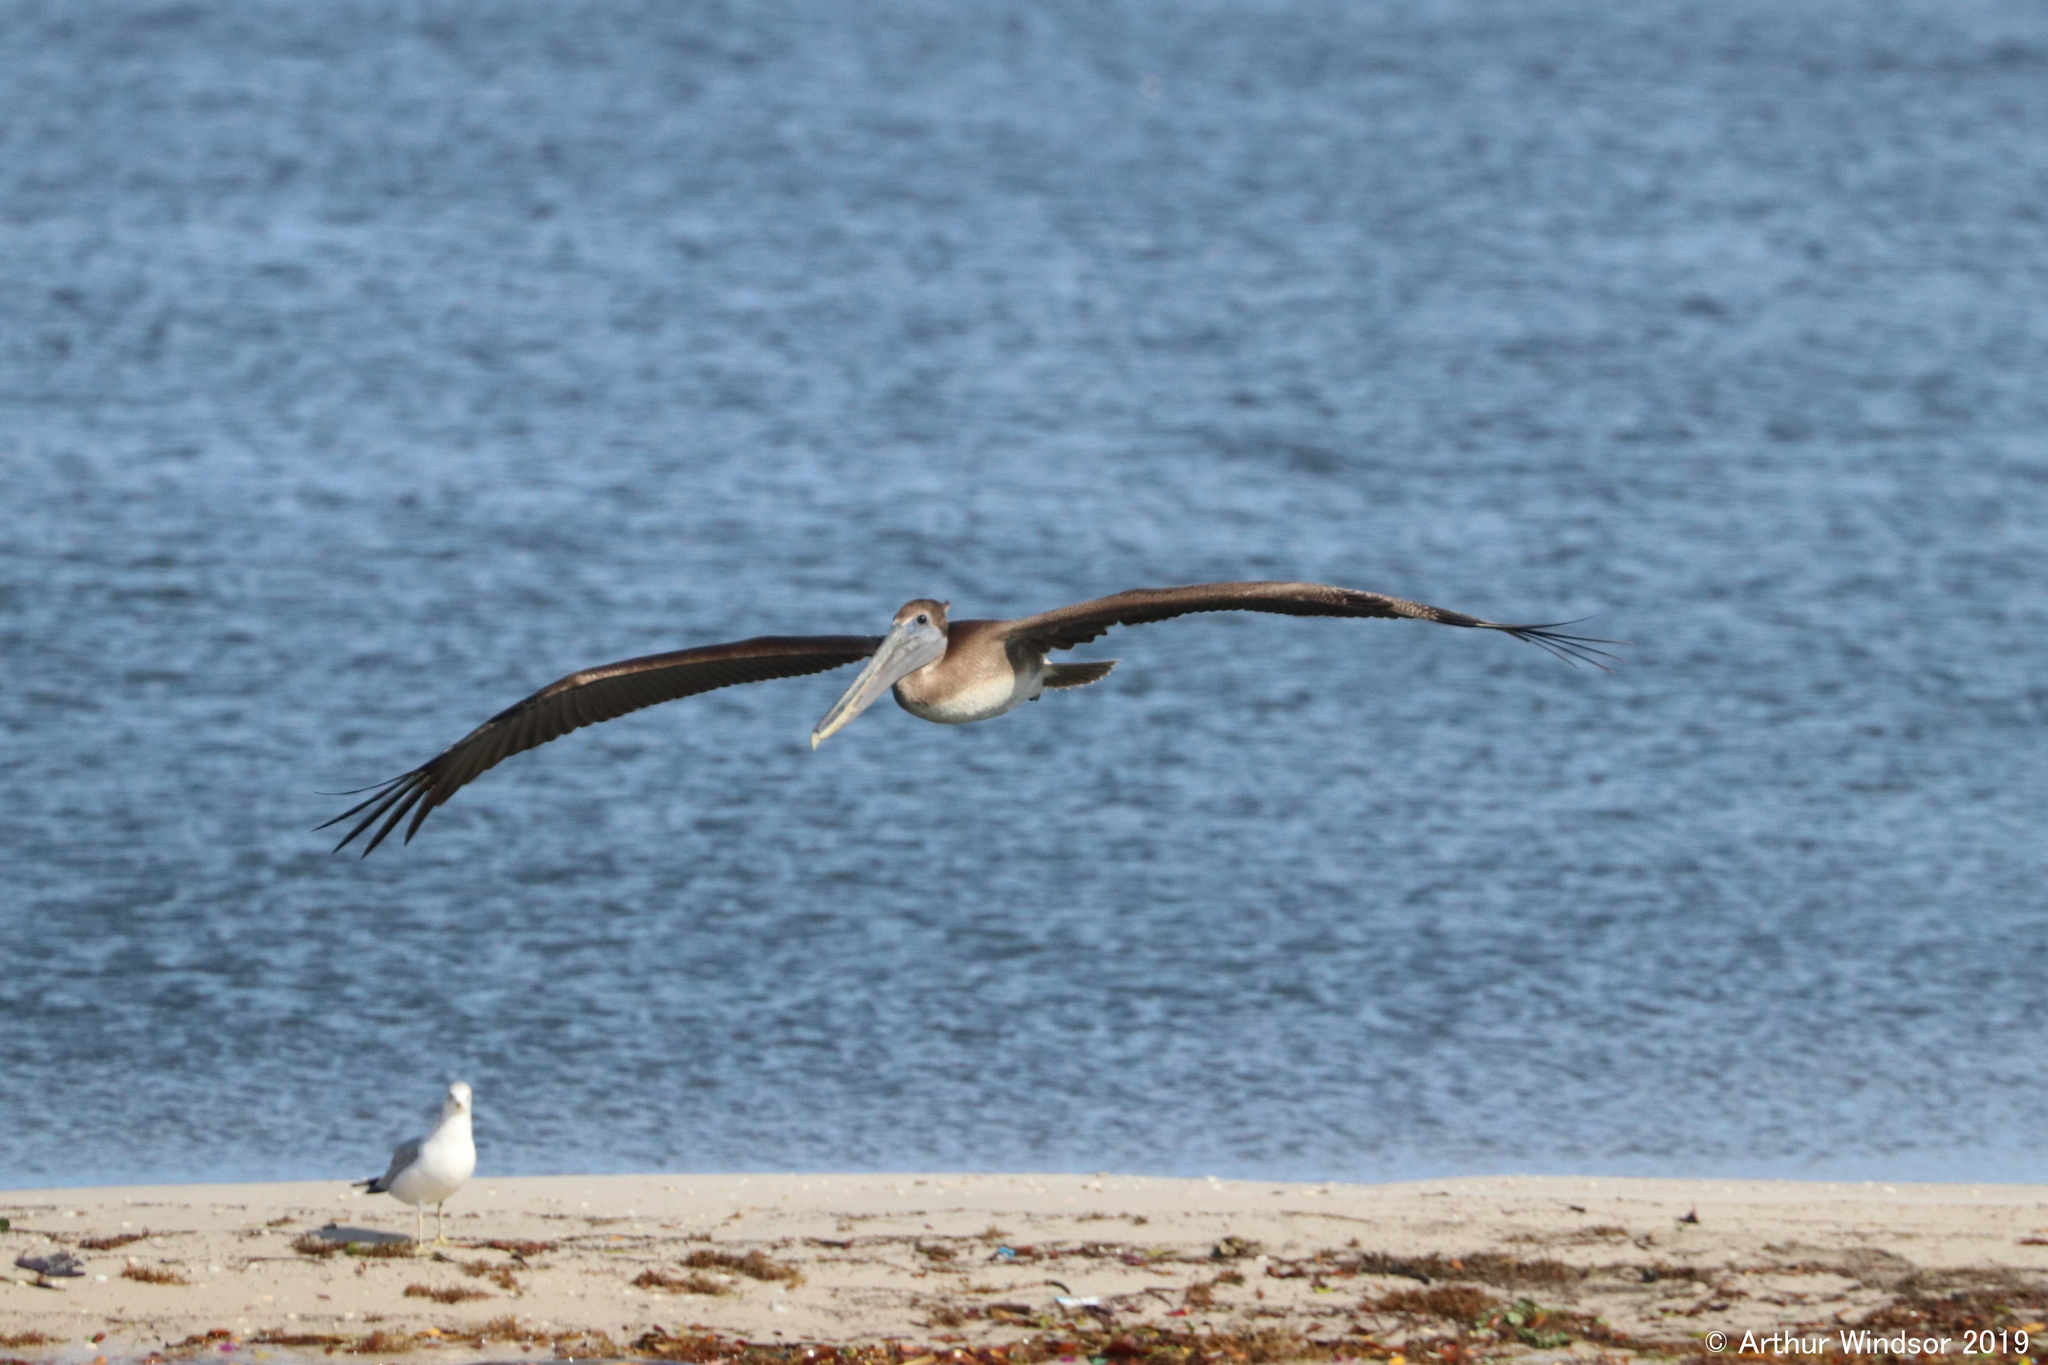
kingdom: Animalia
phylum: Chordata
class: Aves
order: Pelecaniformes
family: Pelecanidae
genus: Pelecanus
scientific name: Pelecanus occidentalis
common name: Brown pelican
